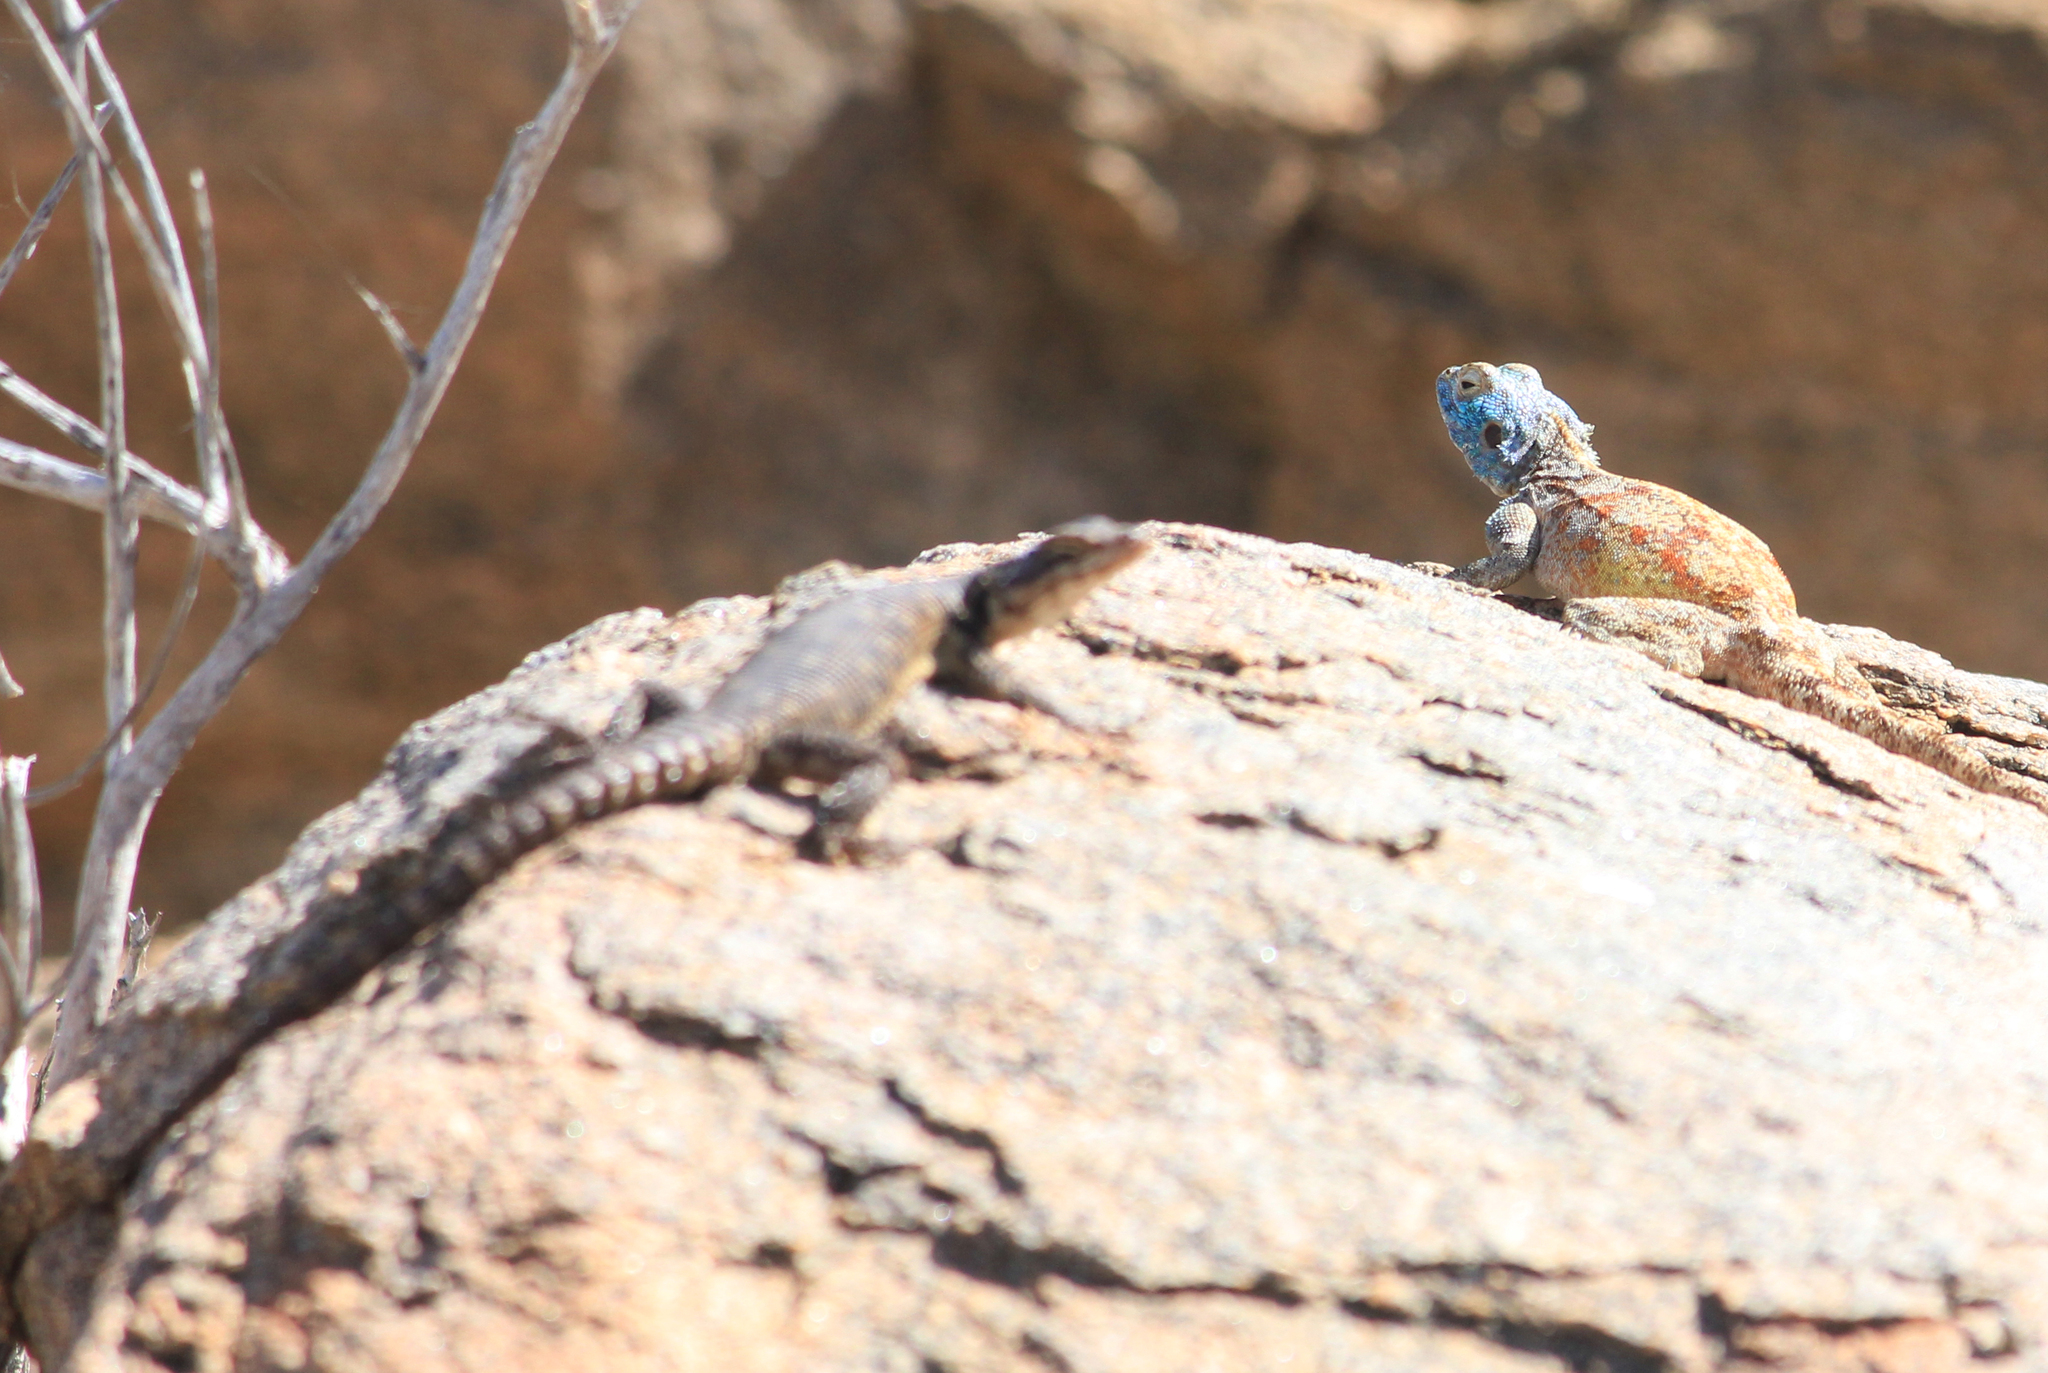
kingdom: Animalia
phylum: Chordata
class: Squamata
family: Agamidae
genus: Agama
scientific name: Agama atra
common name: Southern african rock agama
